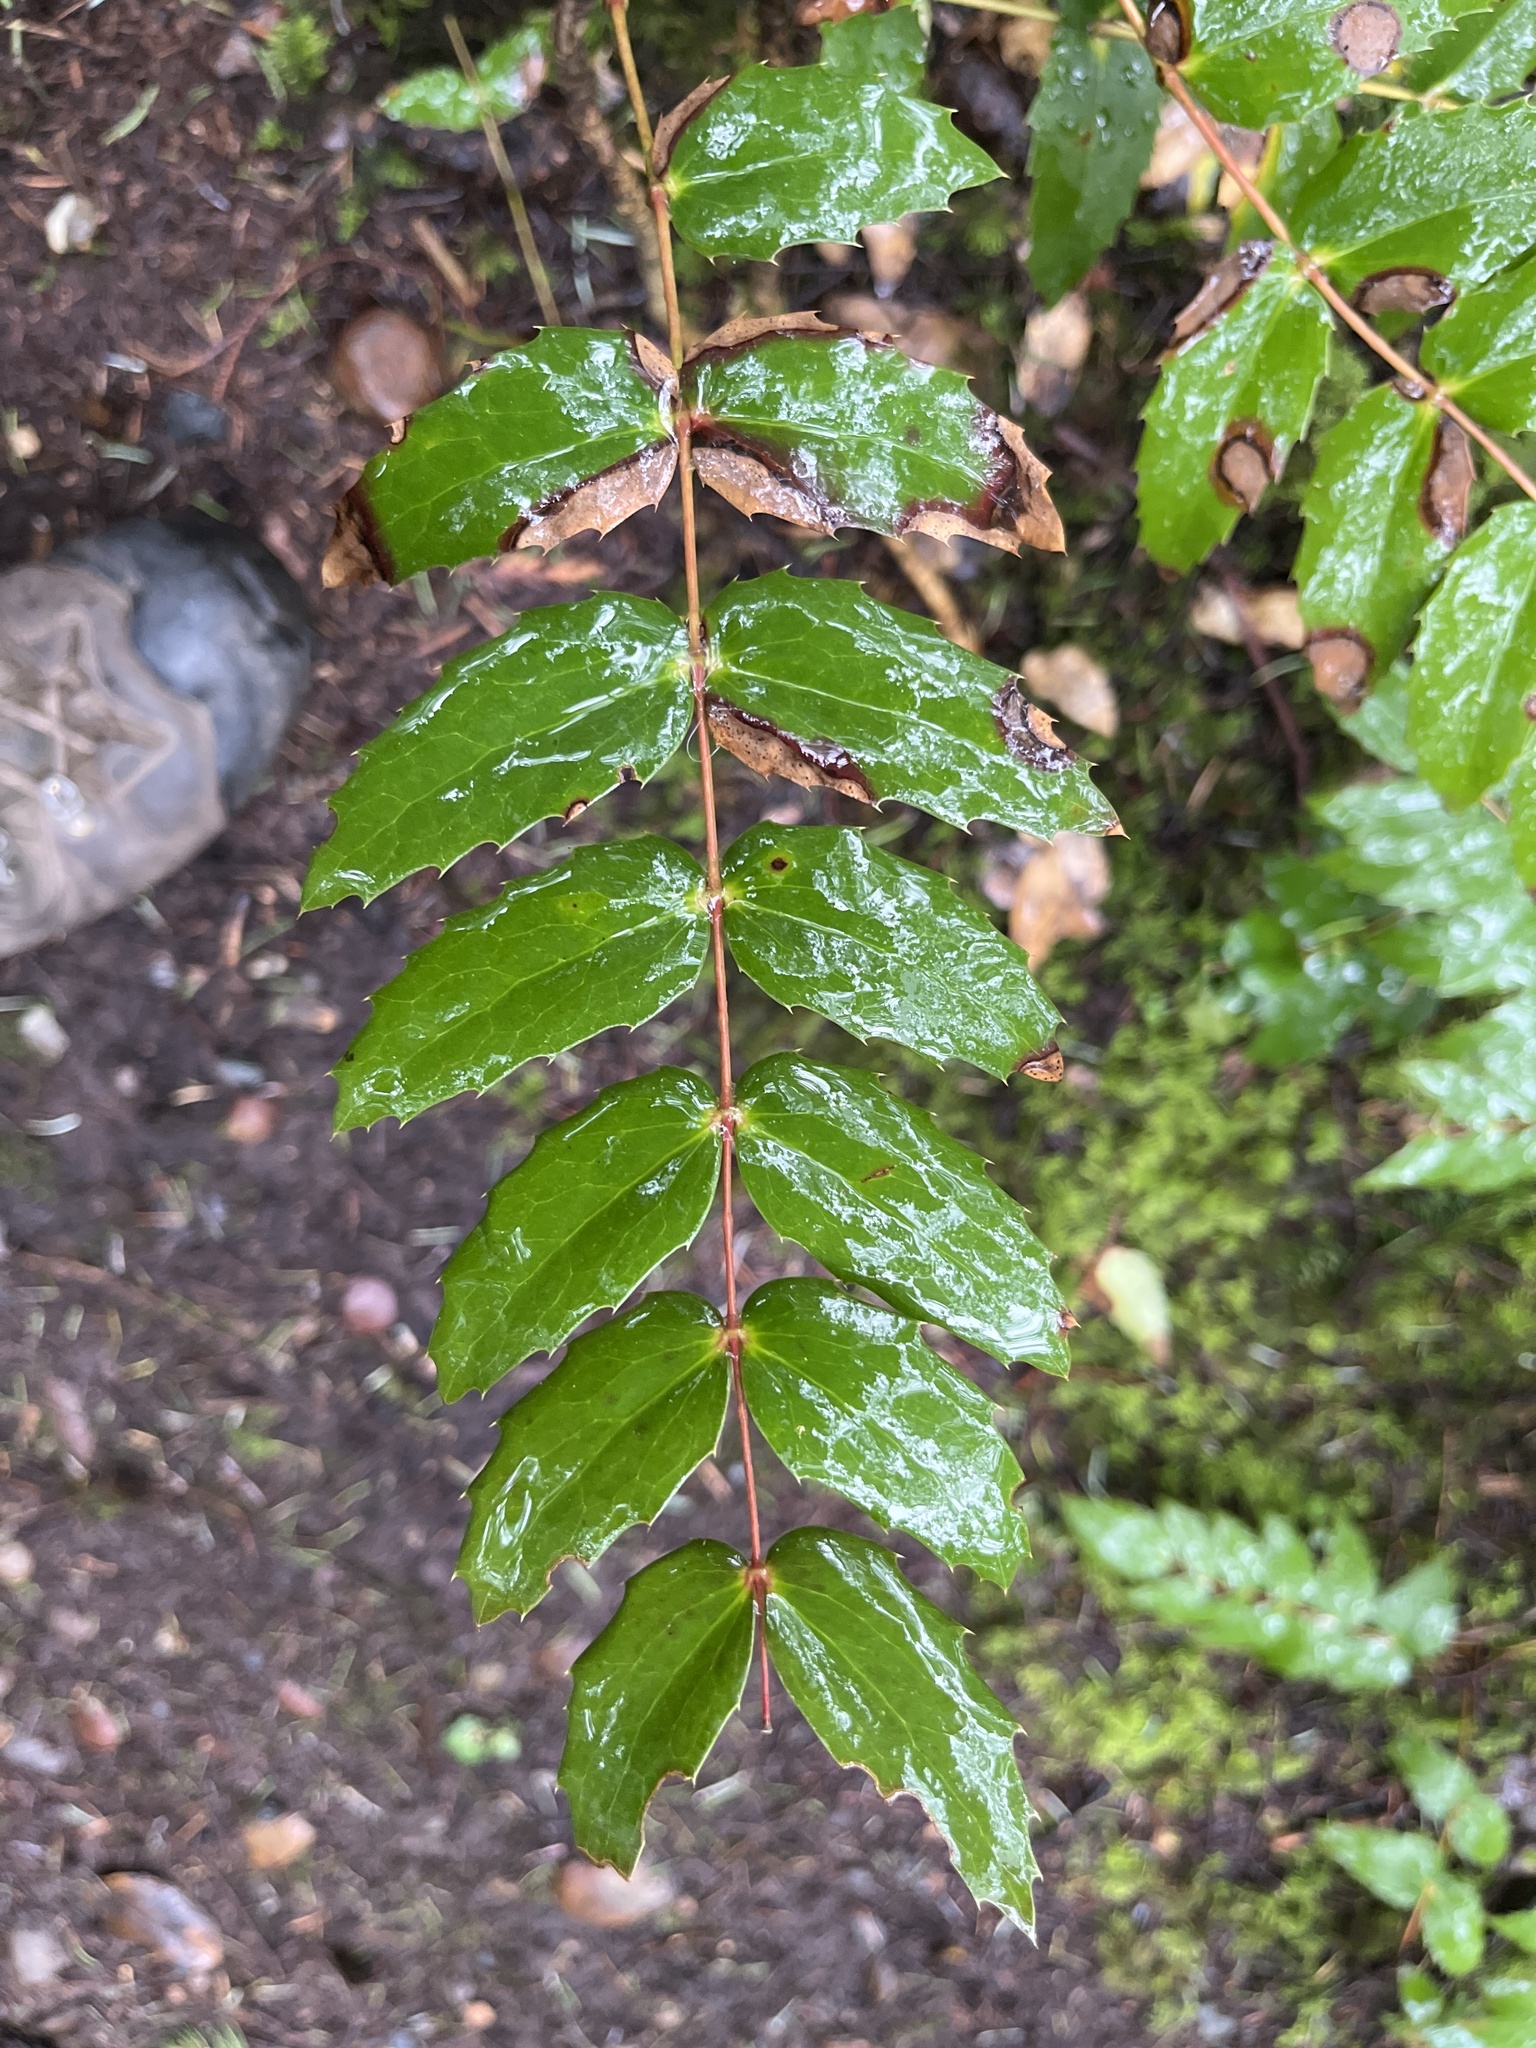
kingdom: Plantae
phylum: Tracheophyta
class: Magnoliopsida
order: Ranunculales
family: Berberidaceae
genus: Mahonia
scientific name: Mahonia nervosa
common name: Cascade oregon-grape
